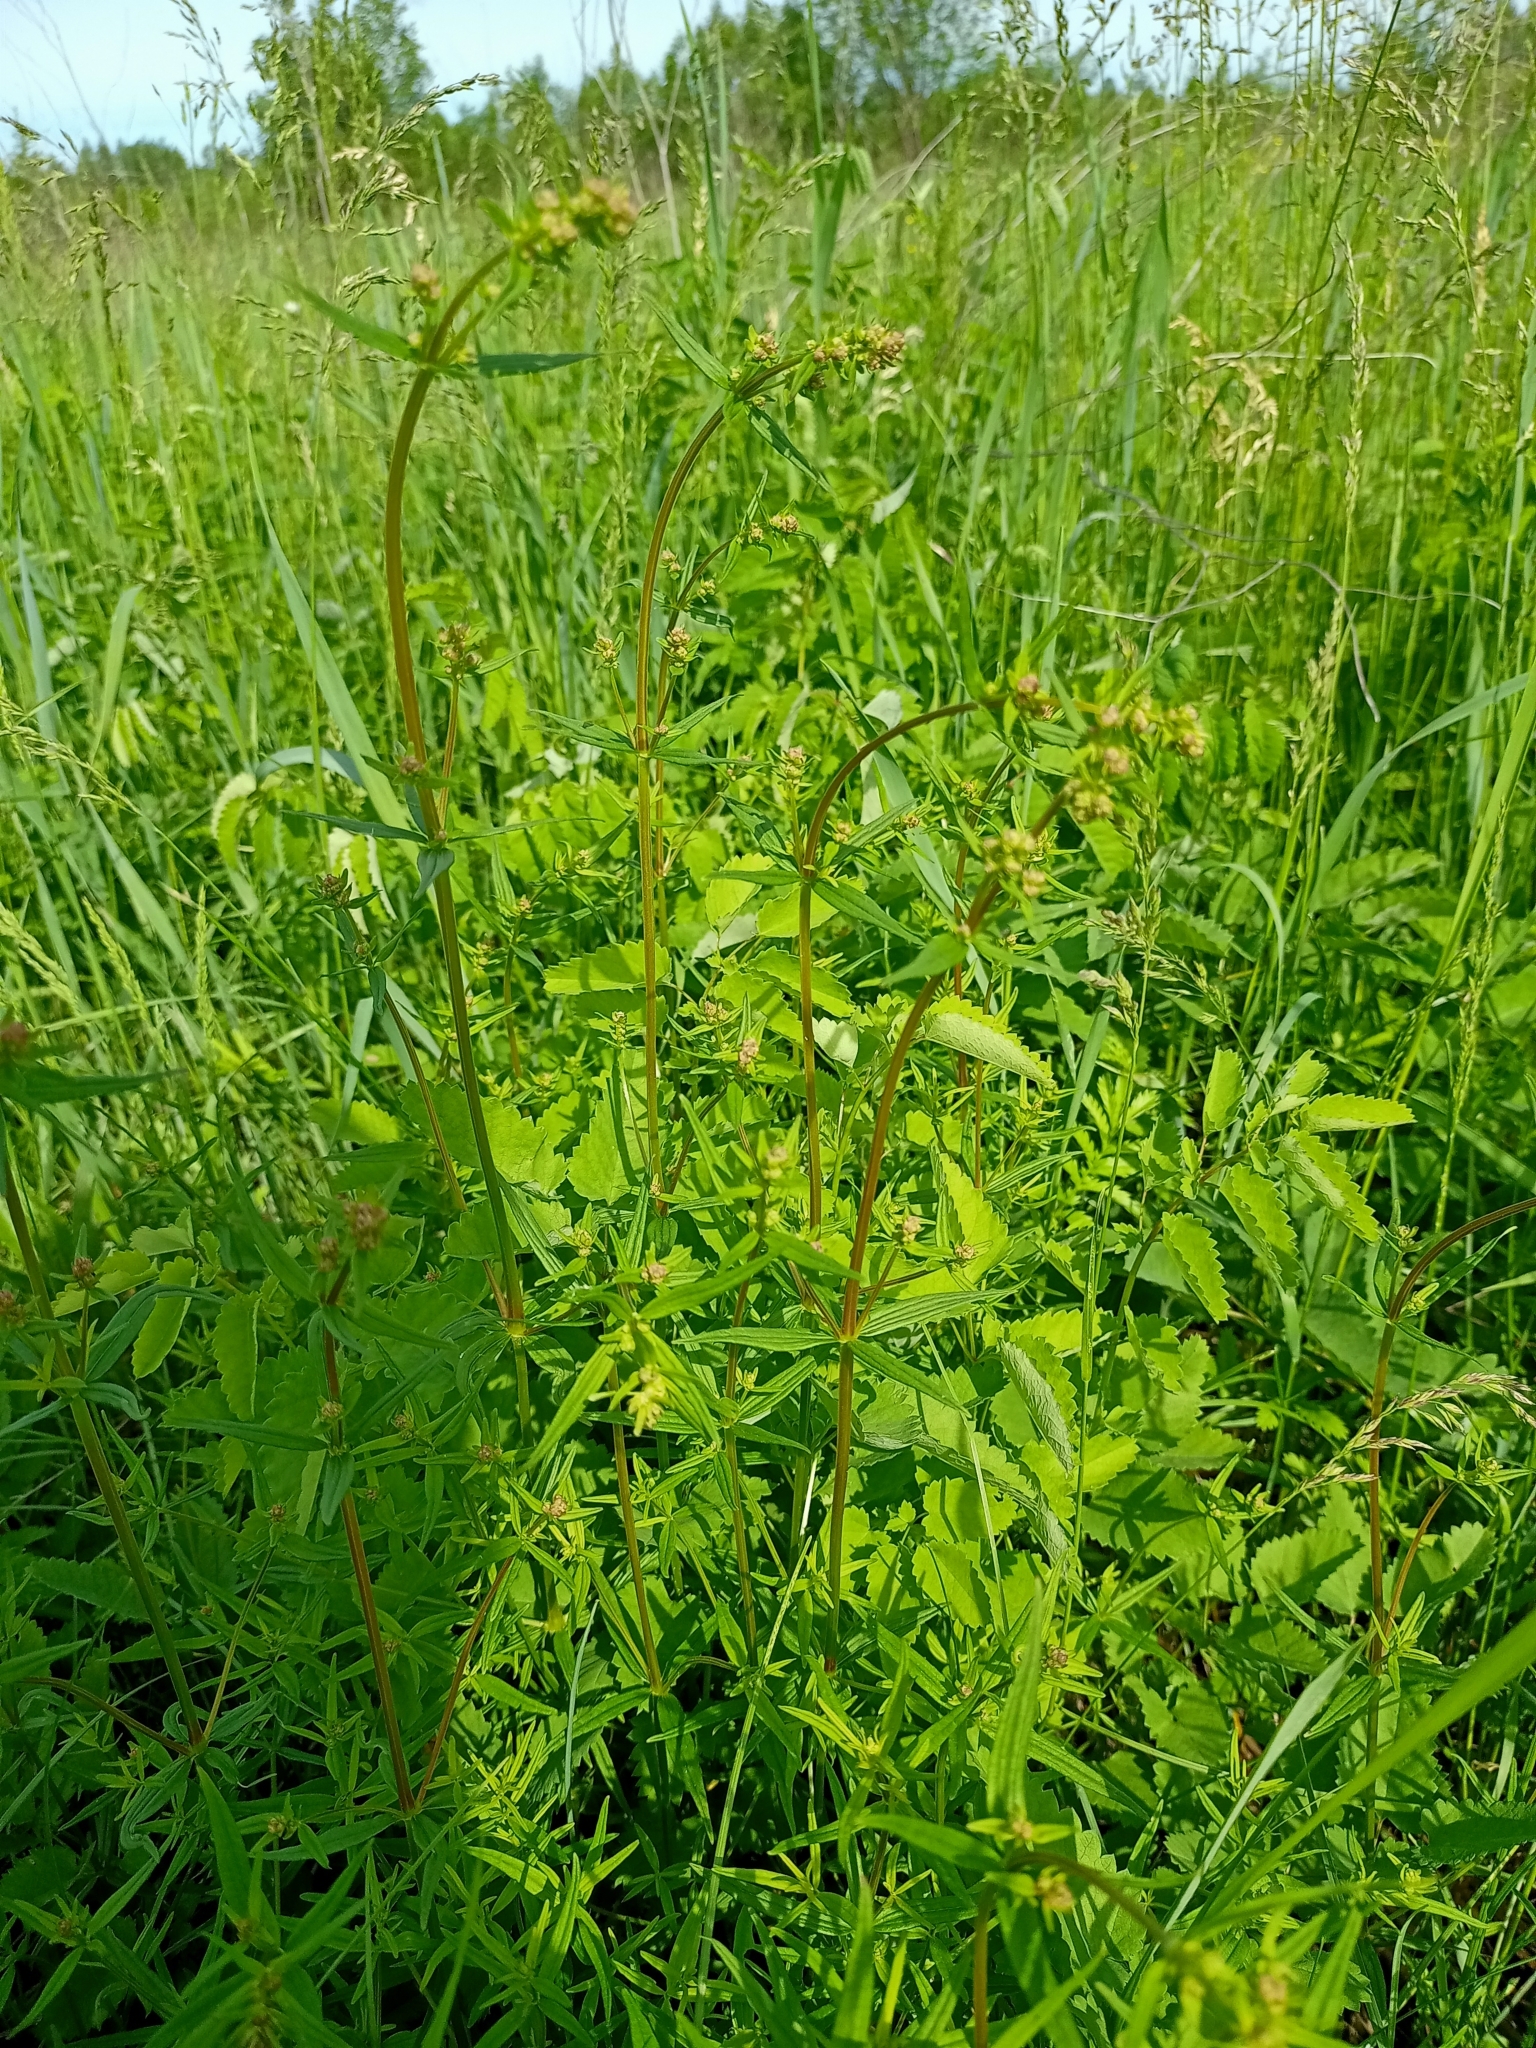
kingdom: Plantae
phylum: Tracheophyta
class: Magnoliopsida
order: Gentianales
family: Rubiaceae
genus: Galium
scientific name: Galium boreale
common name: Northern bedstraw
